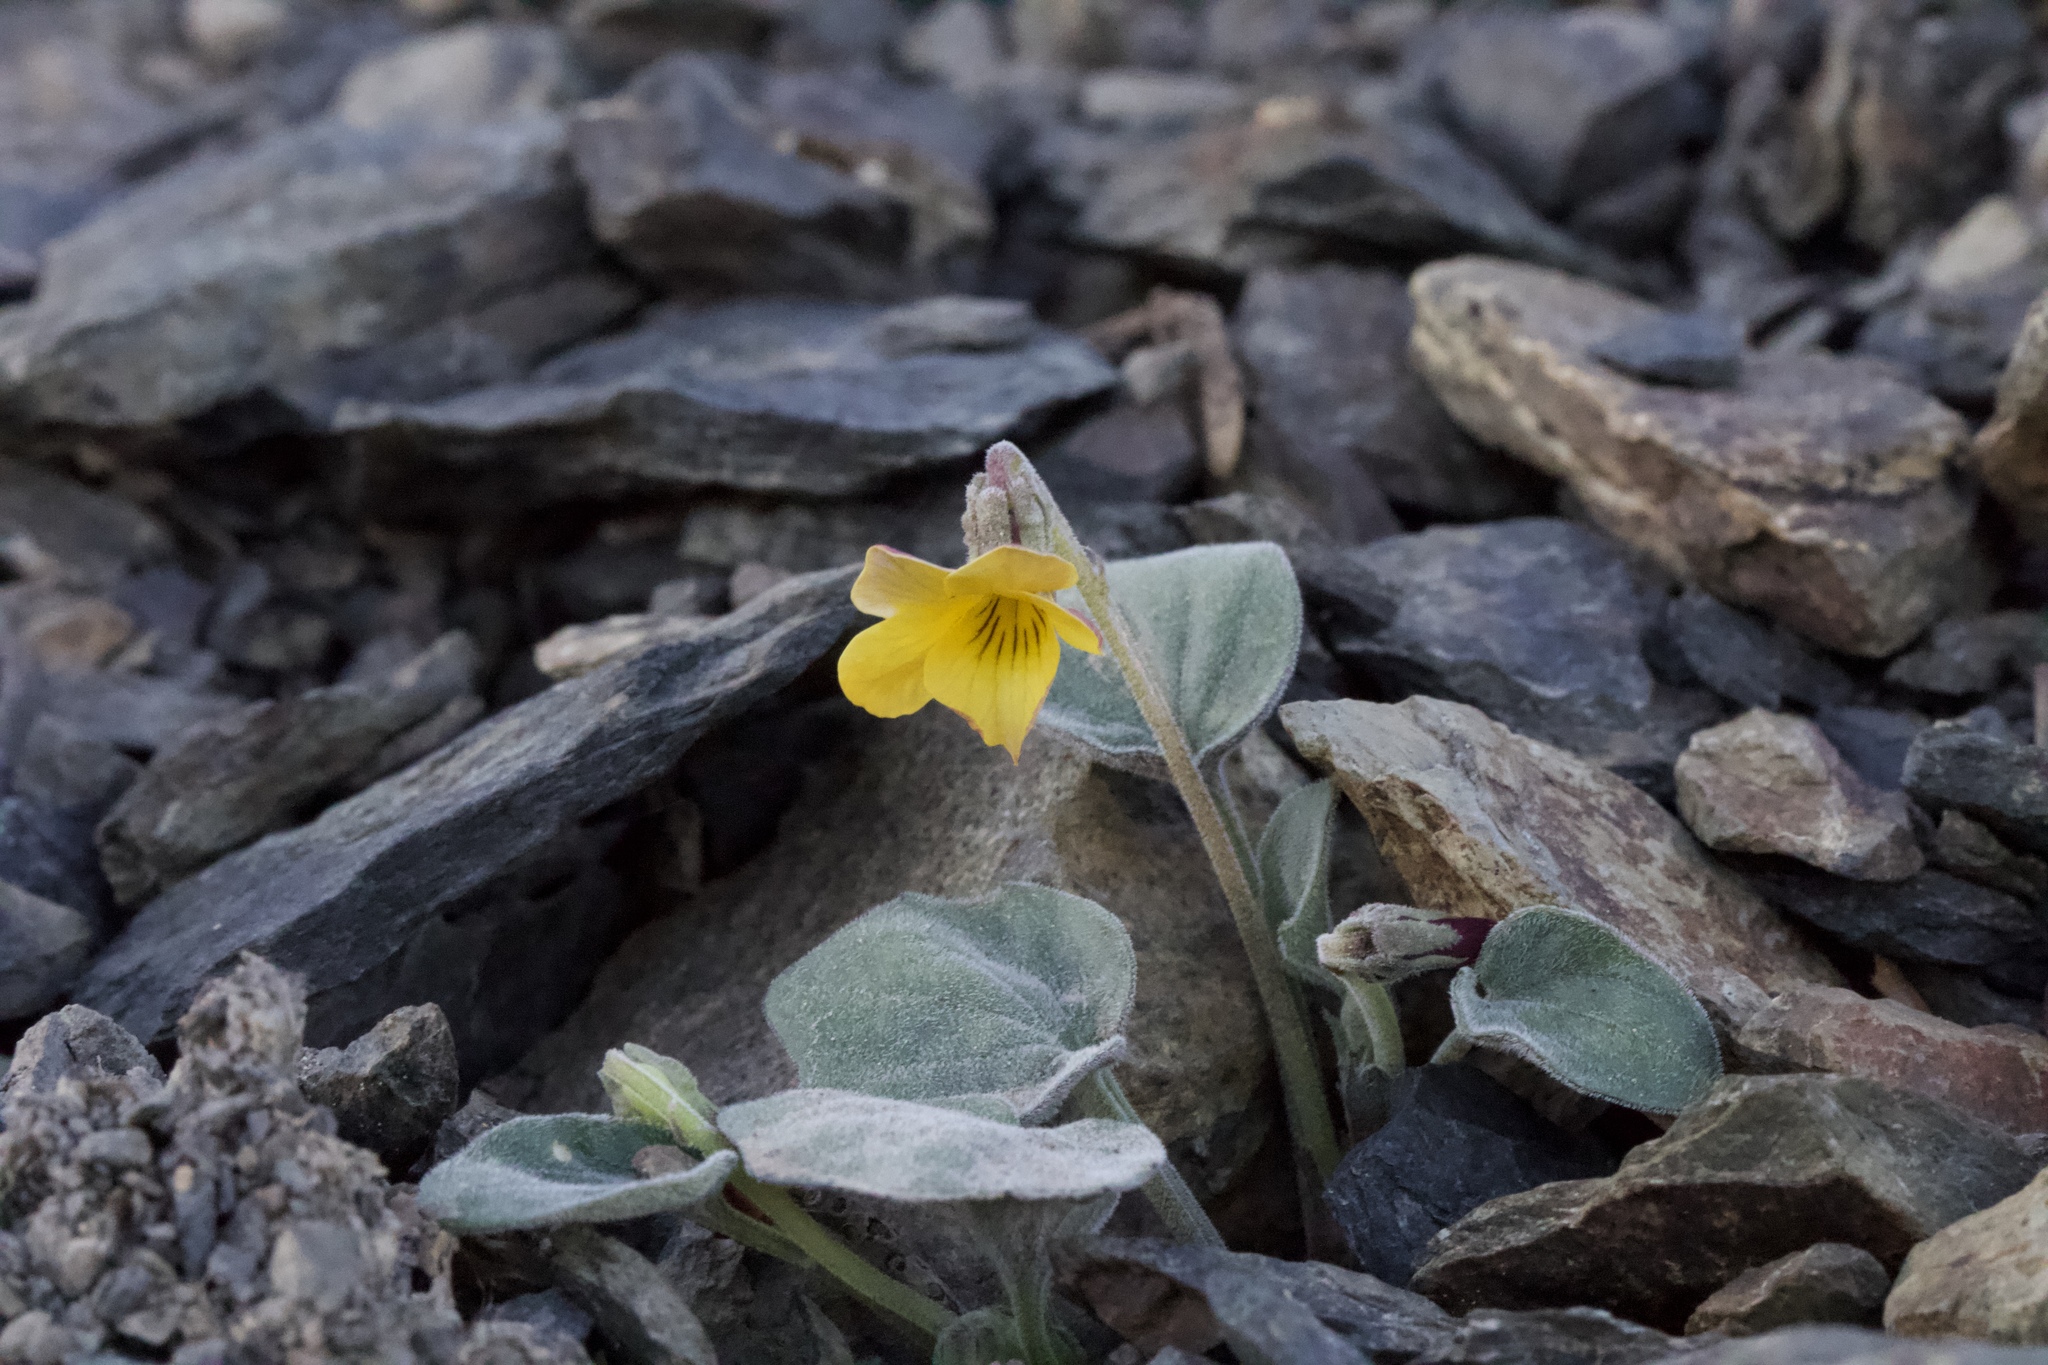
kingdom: Plantae
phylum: Tracheophyta
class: Magnoliopsida
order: Malpighiales
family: Violaceae
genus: Viola
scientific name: Viola purpurea
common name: Pine violet
